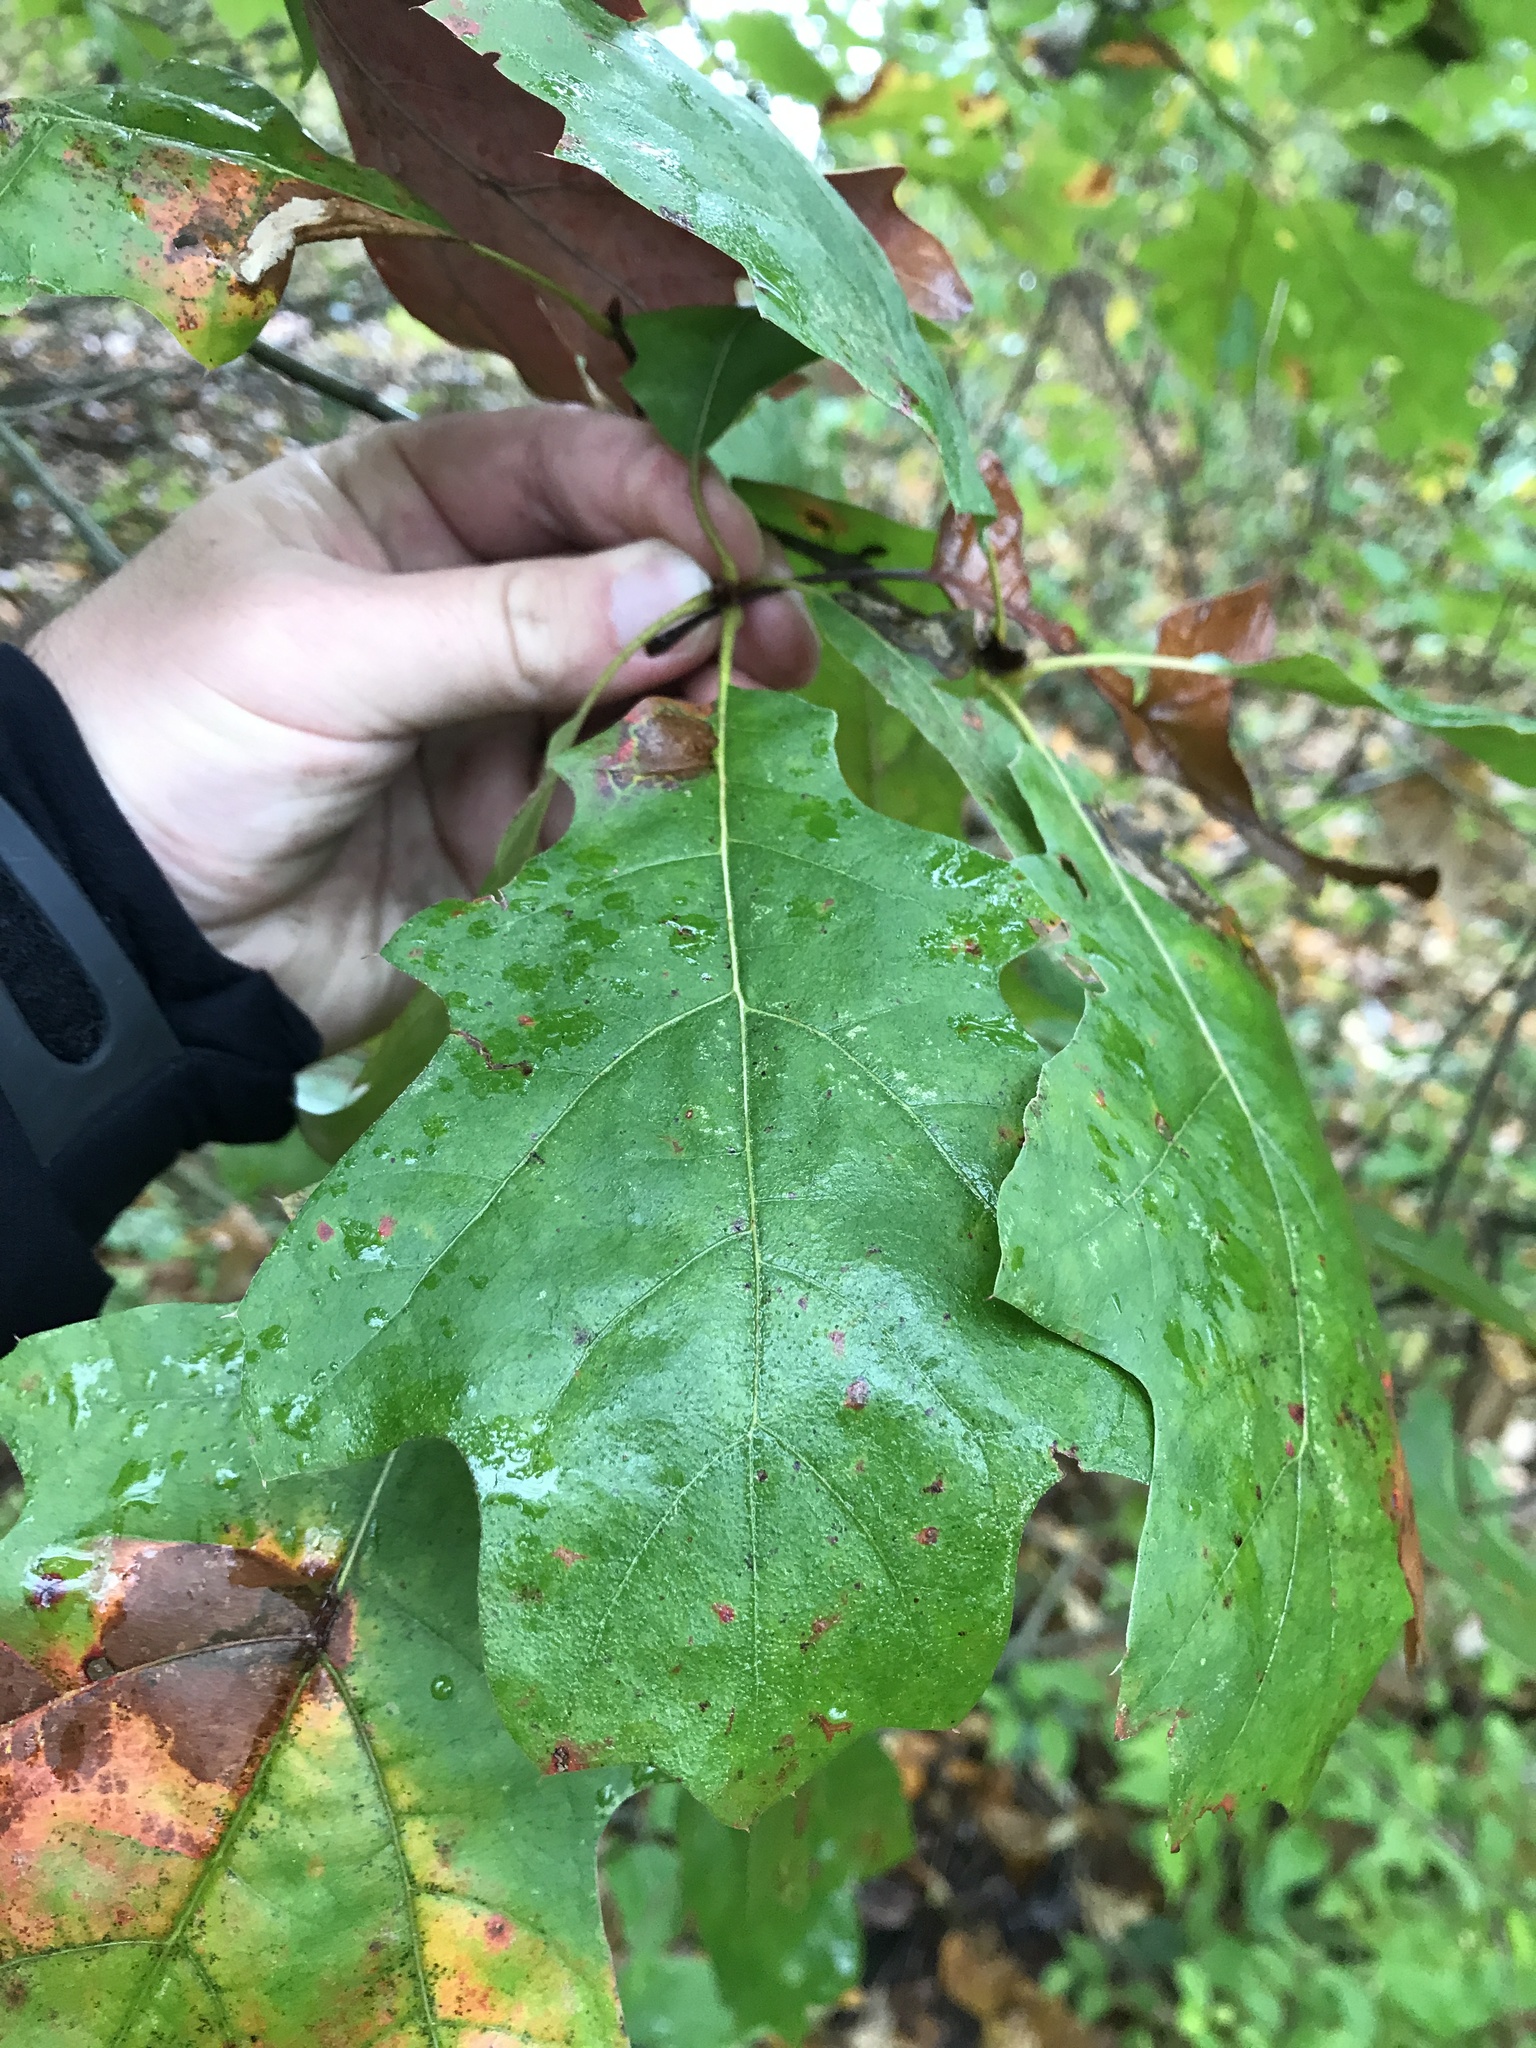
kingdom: Plantae
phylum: Tracheophyta
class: Magnoliopsida
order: Fagales
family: Fagaceae
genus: Quercus
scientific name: Quercus velutina
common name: Black oak
